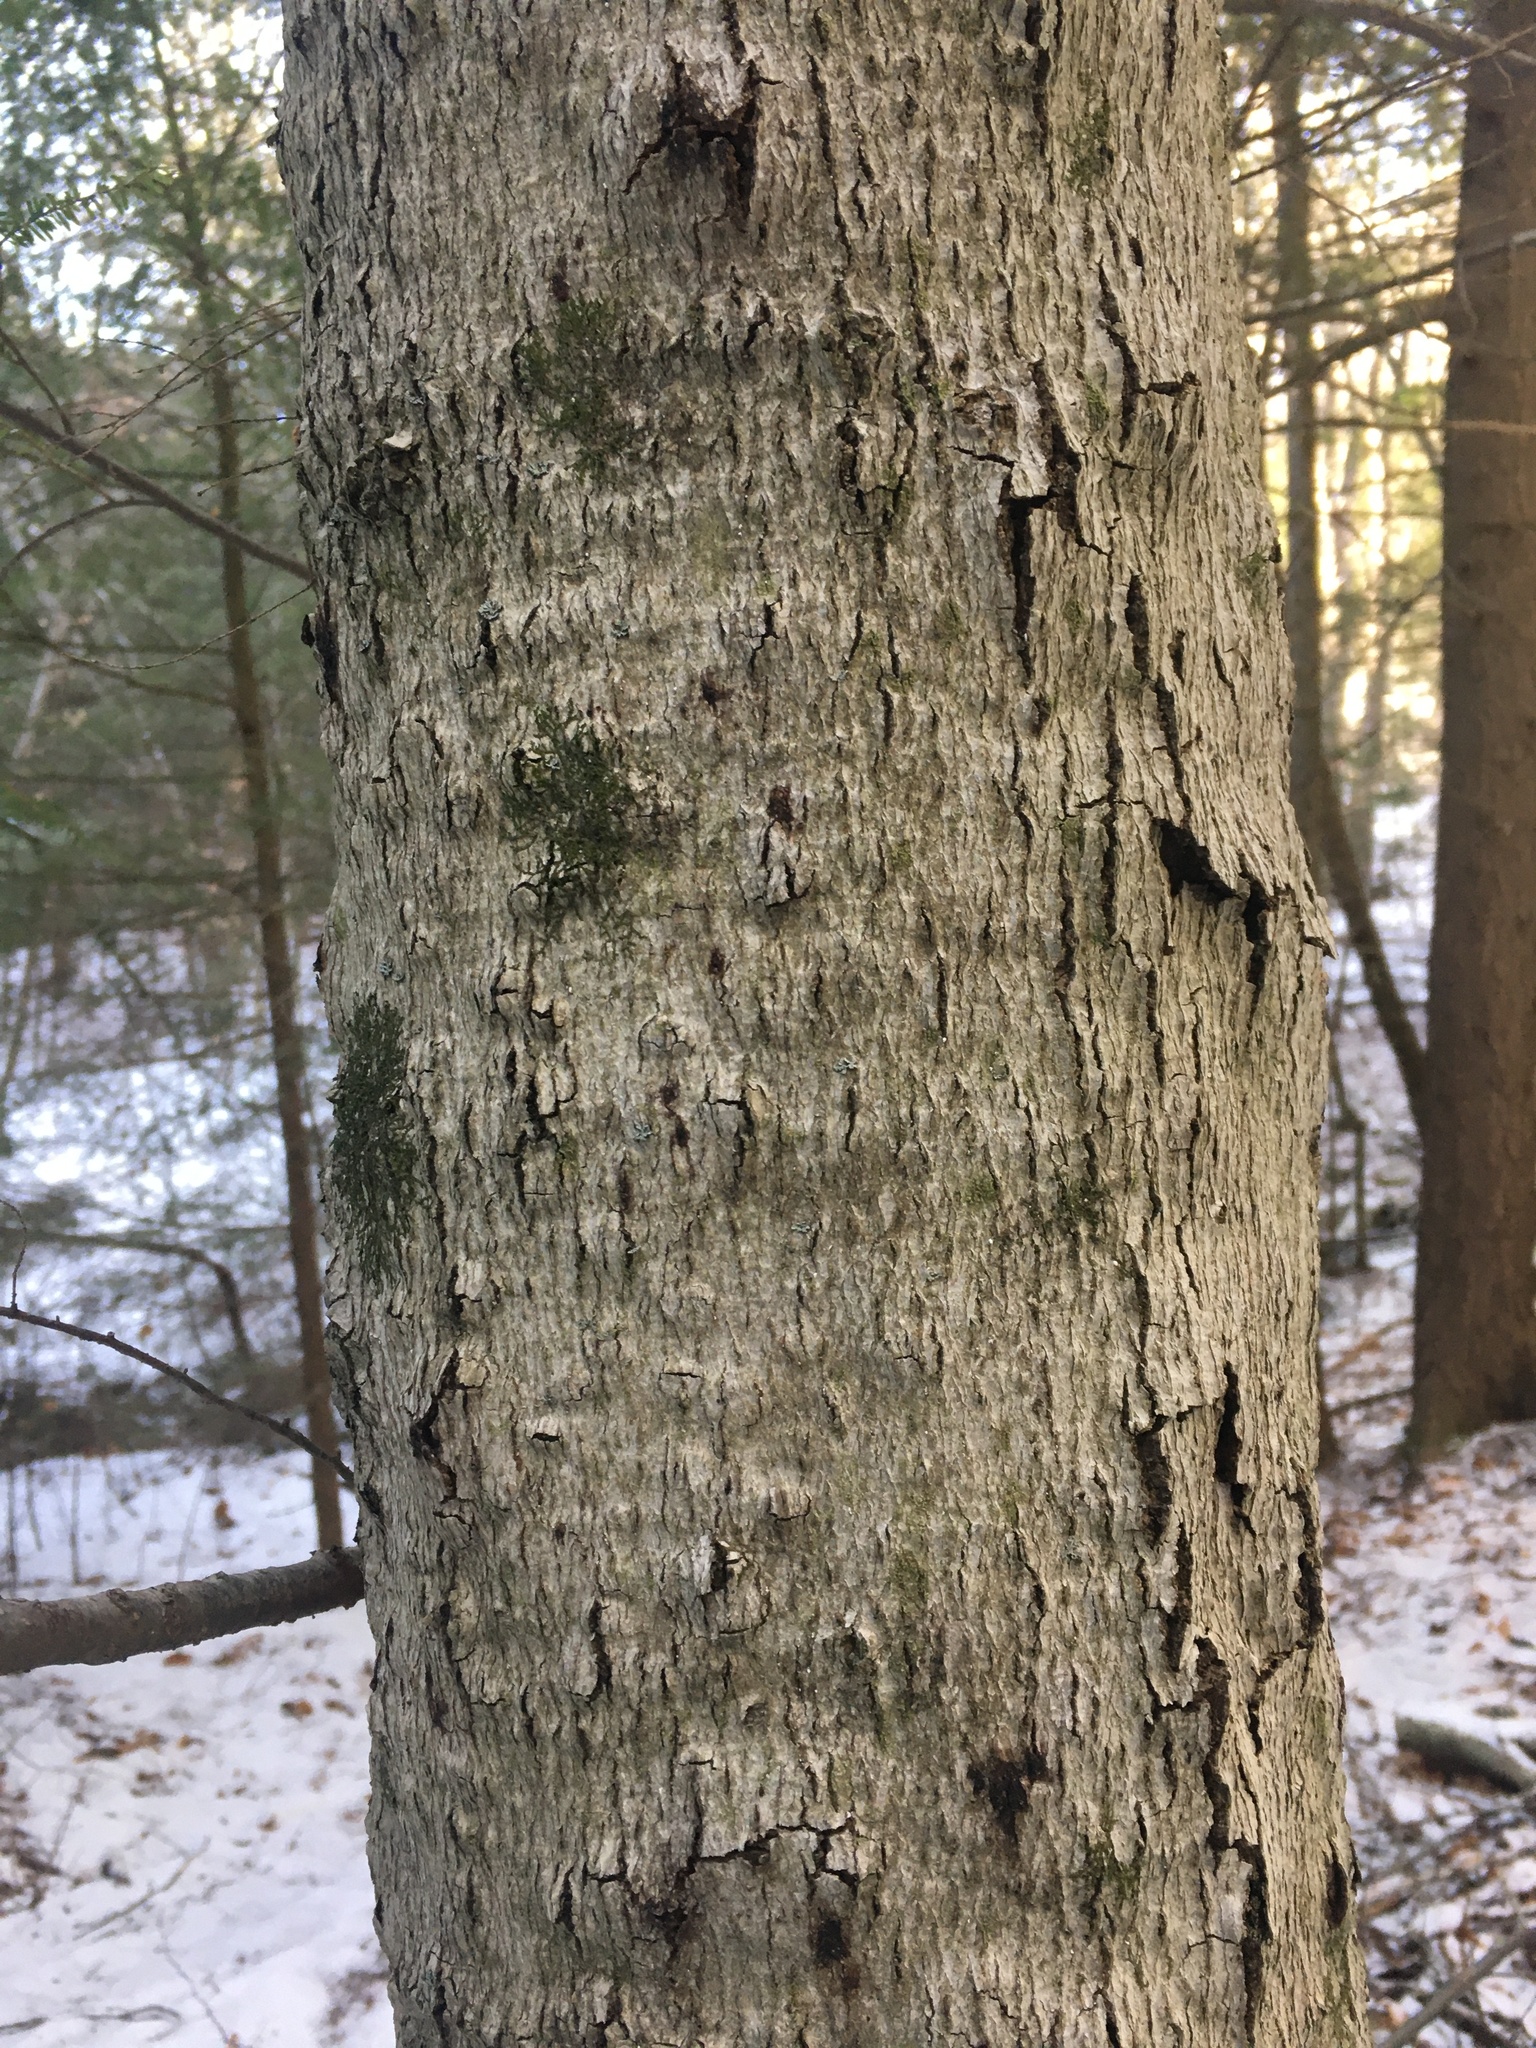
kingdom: Animalia
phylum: Arthropoda
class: Insecta
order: Hemiptera
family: Eriococcidae
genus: Cryptococcus
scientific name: Cryptococcus fagisuga
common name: Beech scale
